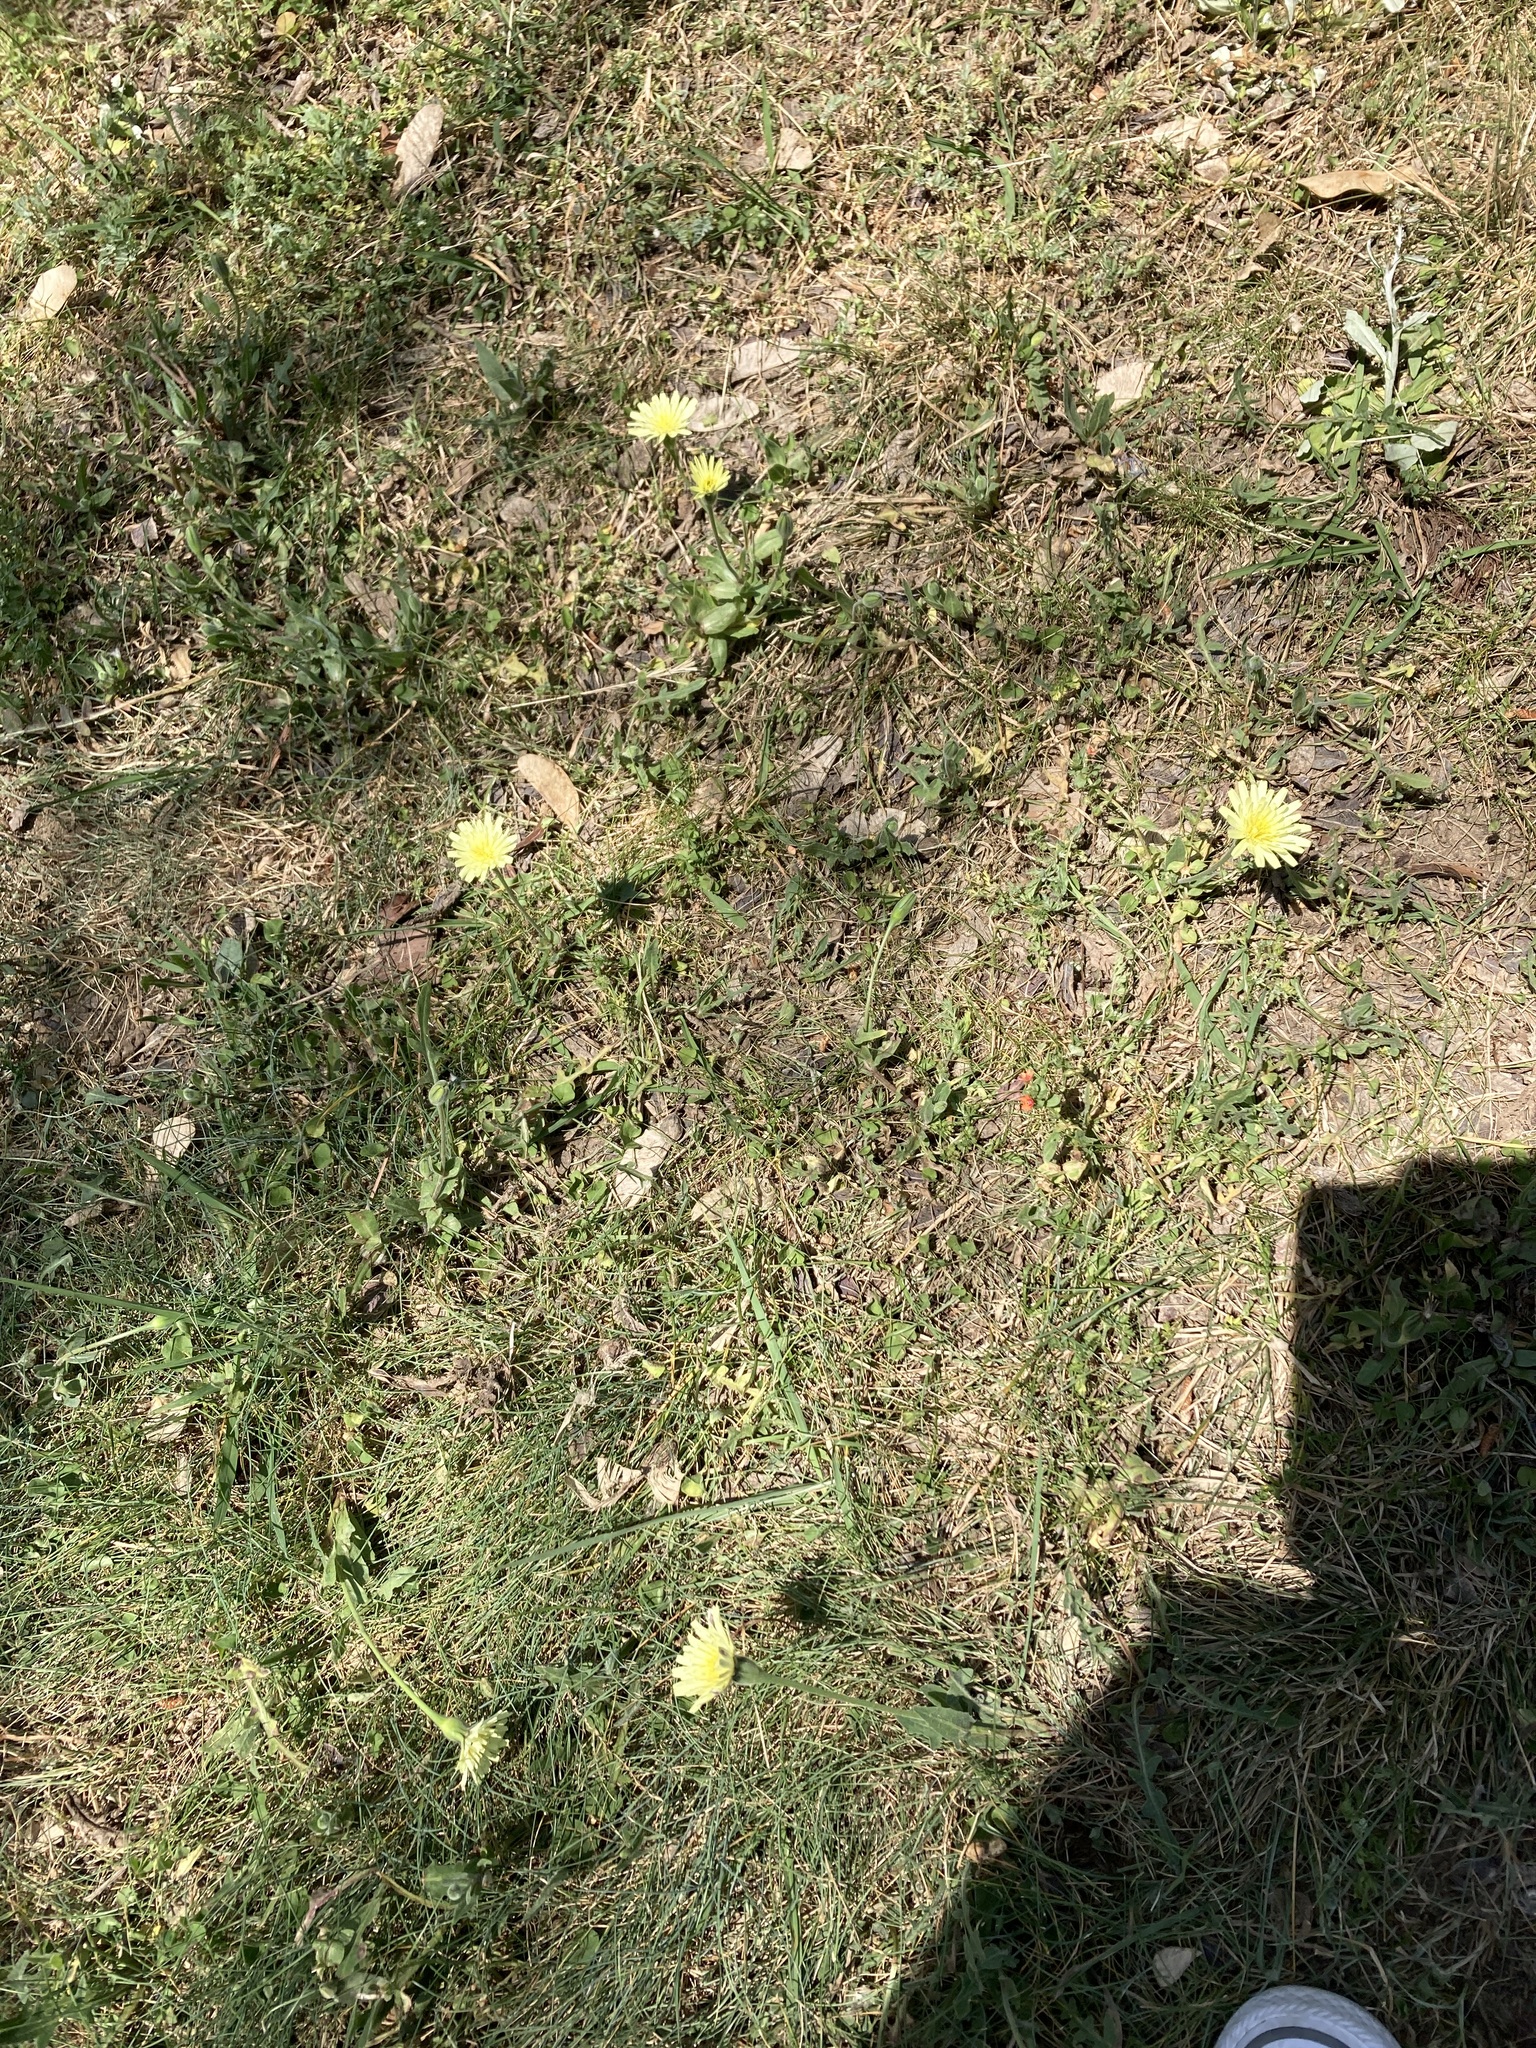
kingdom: Plantae
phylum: Tracheophyta
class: Magnoliopsida
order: Asterales
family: Asteraceae
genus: Urospermum
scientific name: Urospermum dalechampii
